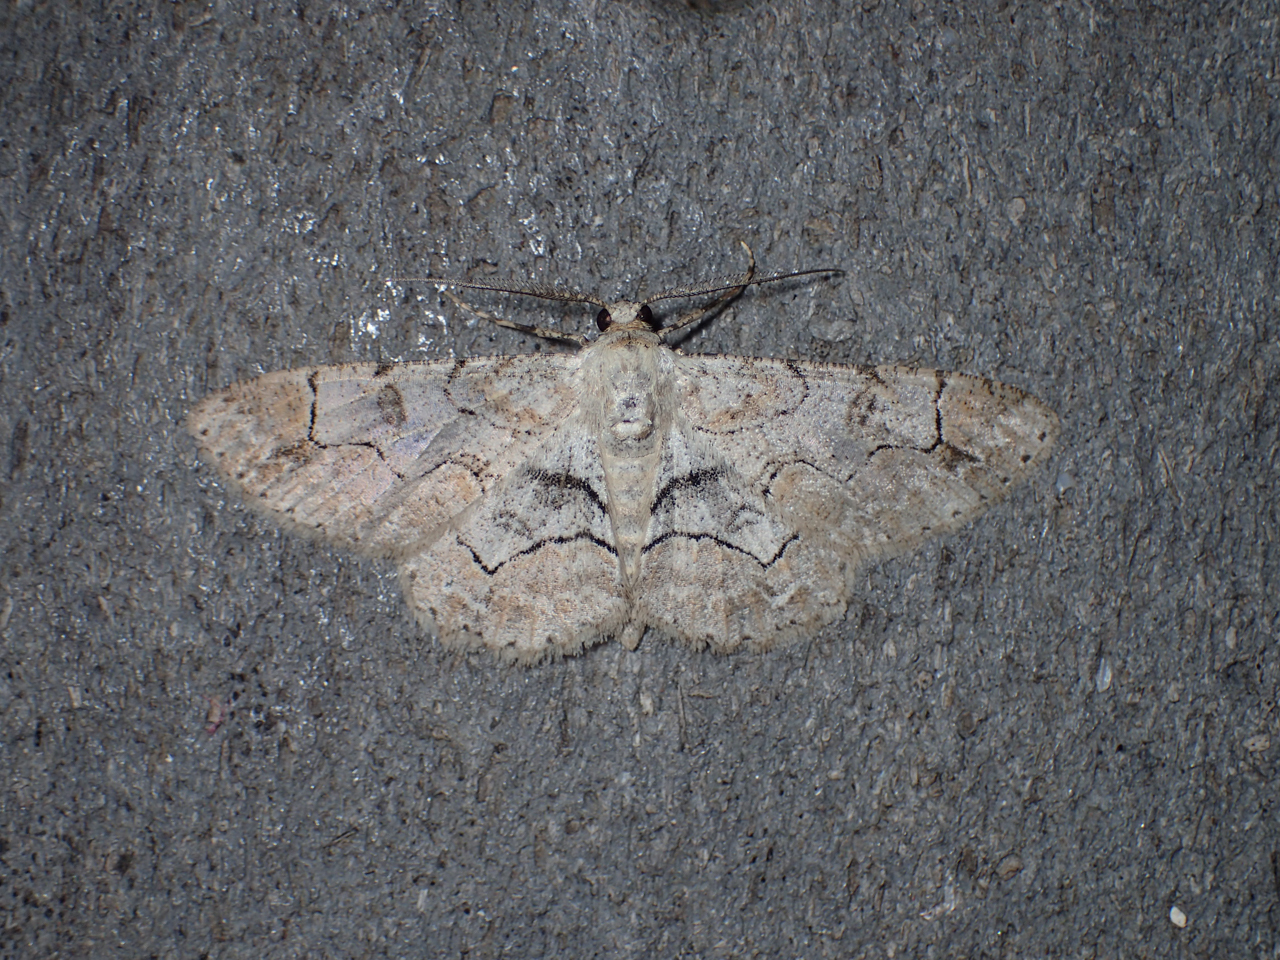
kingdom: Animalia
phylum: Arthropoda
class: Insecta
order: Lepidoptera
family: Geometridae
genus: Iridopsis
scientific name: Iridopsis larvaria
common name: Bent-line gray
